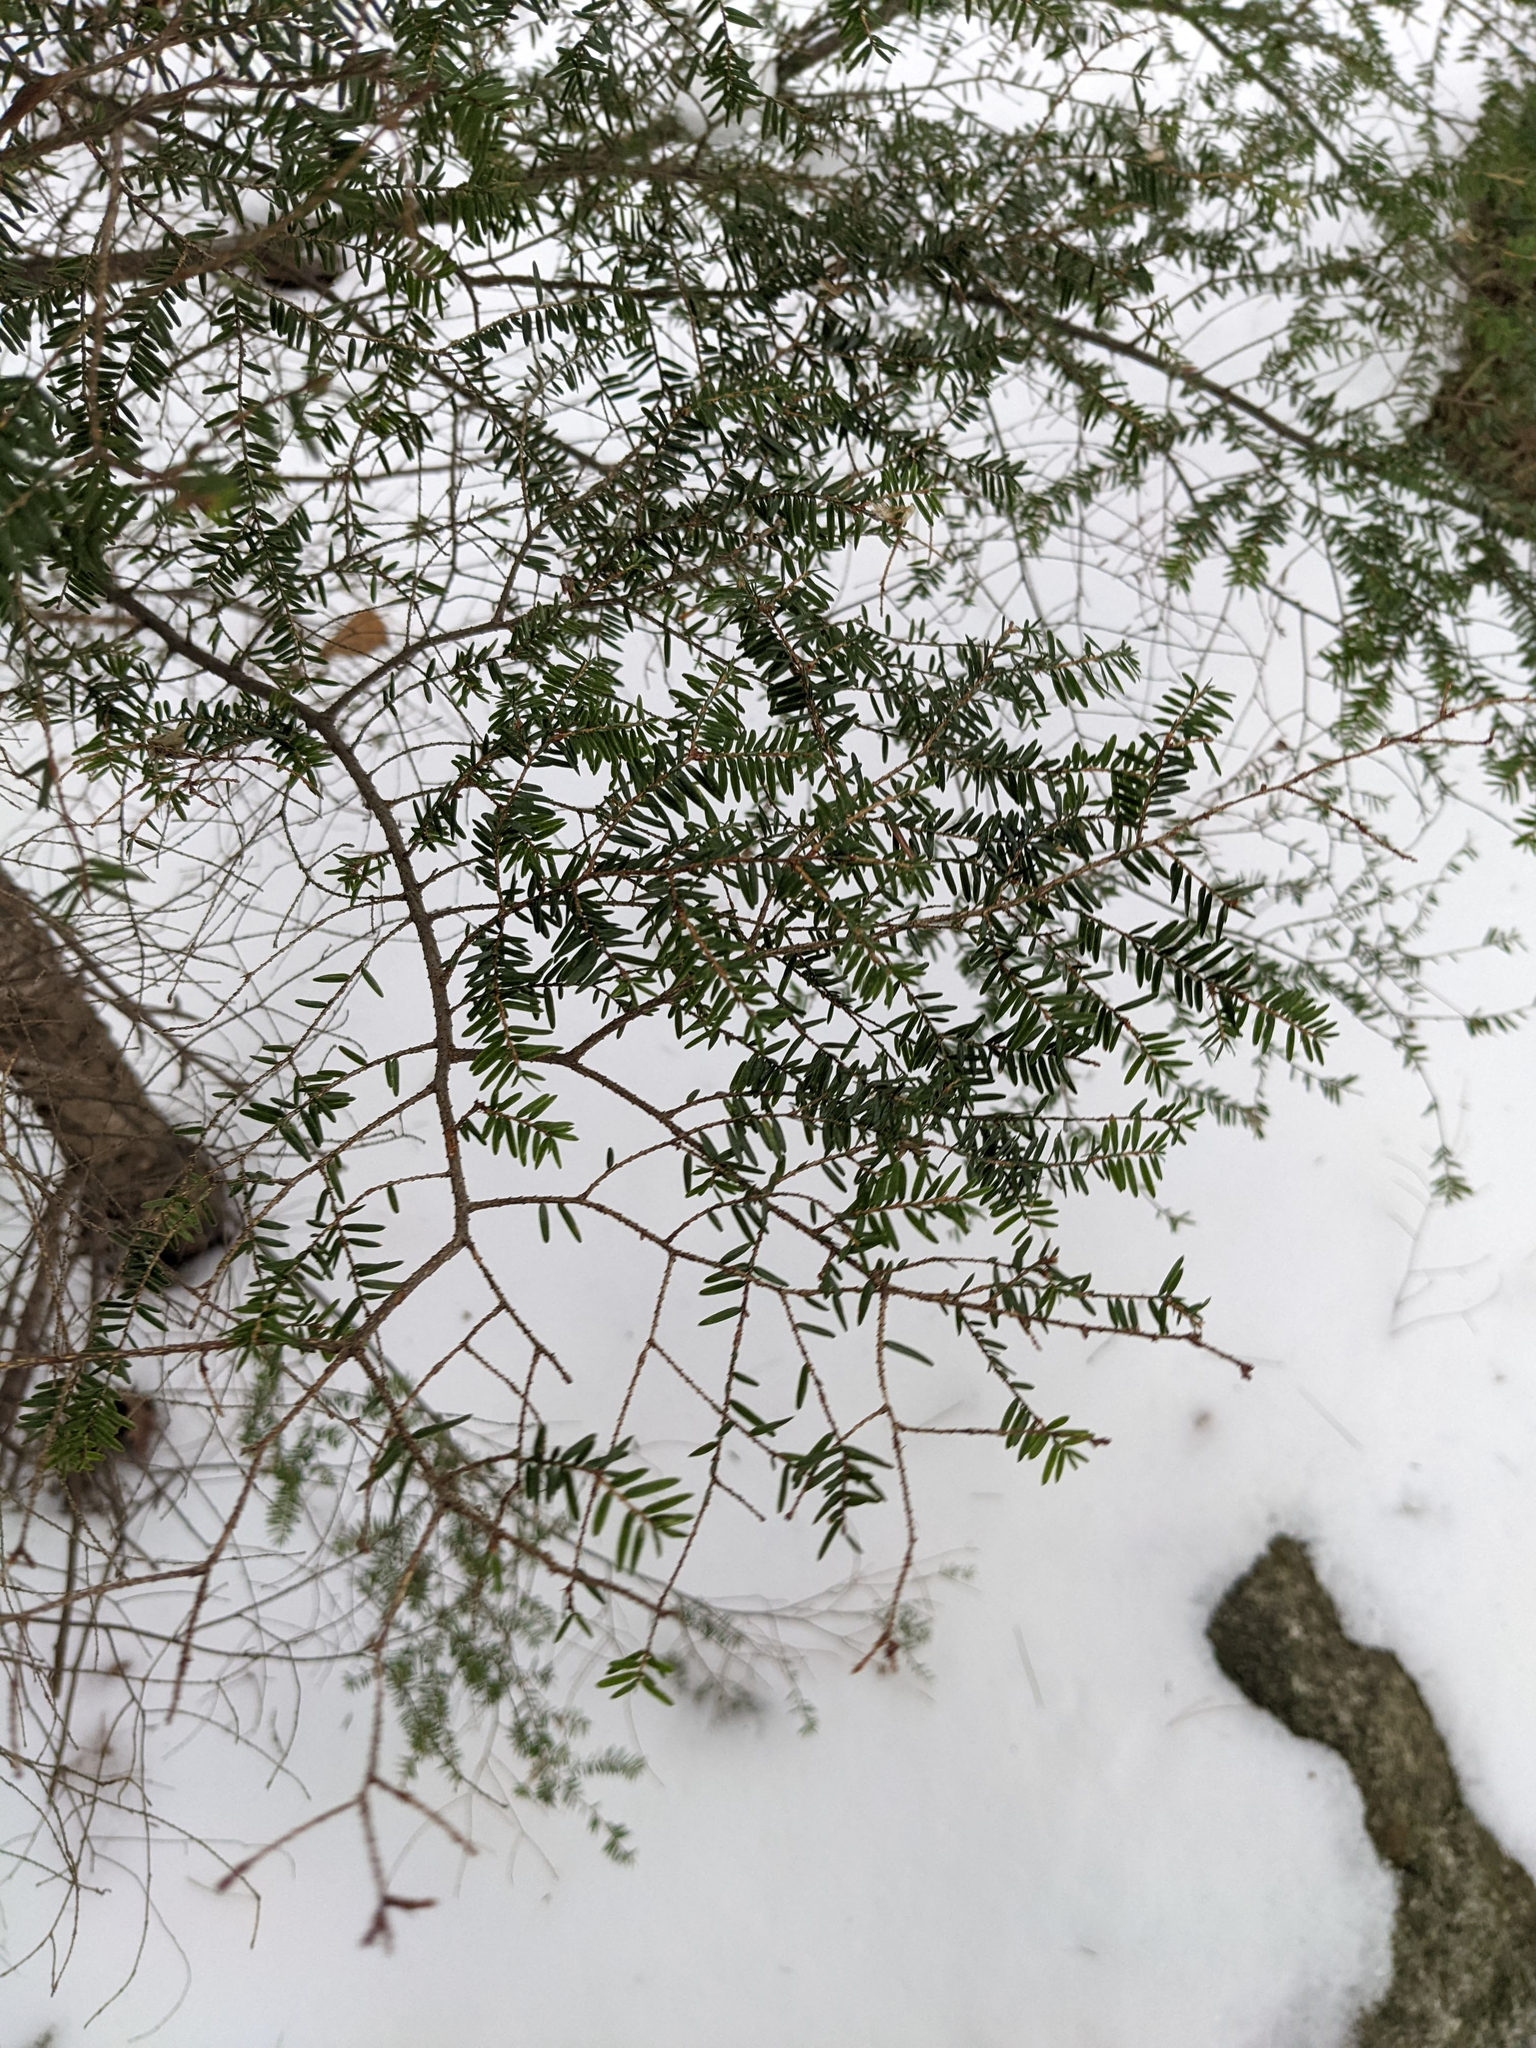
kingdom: Plantae
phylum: Tracheophyta
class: Pinopsida
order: Pinales
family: Pinaceae
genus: Tsuga
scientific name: Tsuga canadensis
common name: Eastern hemlock
